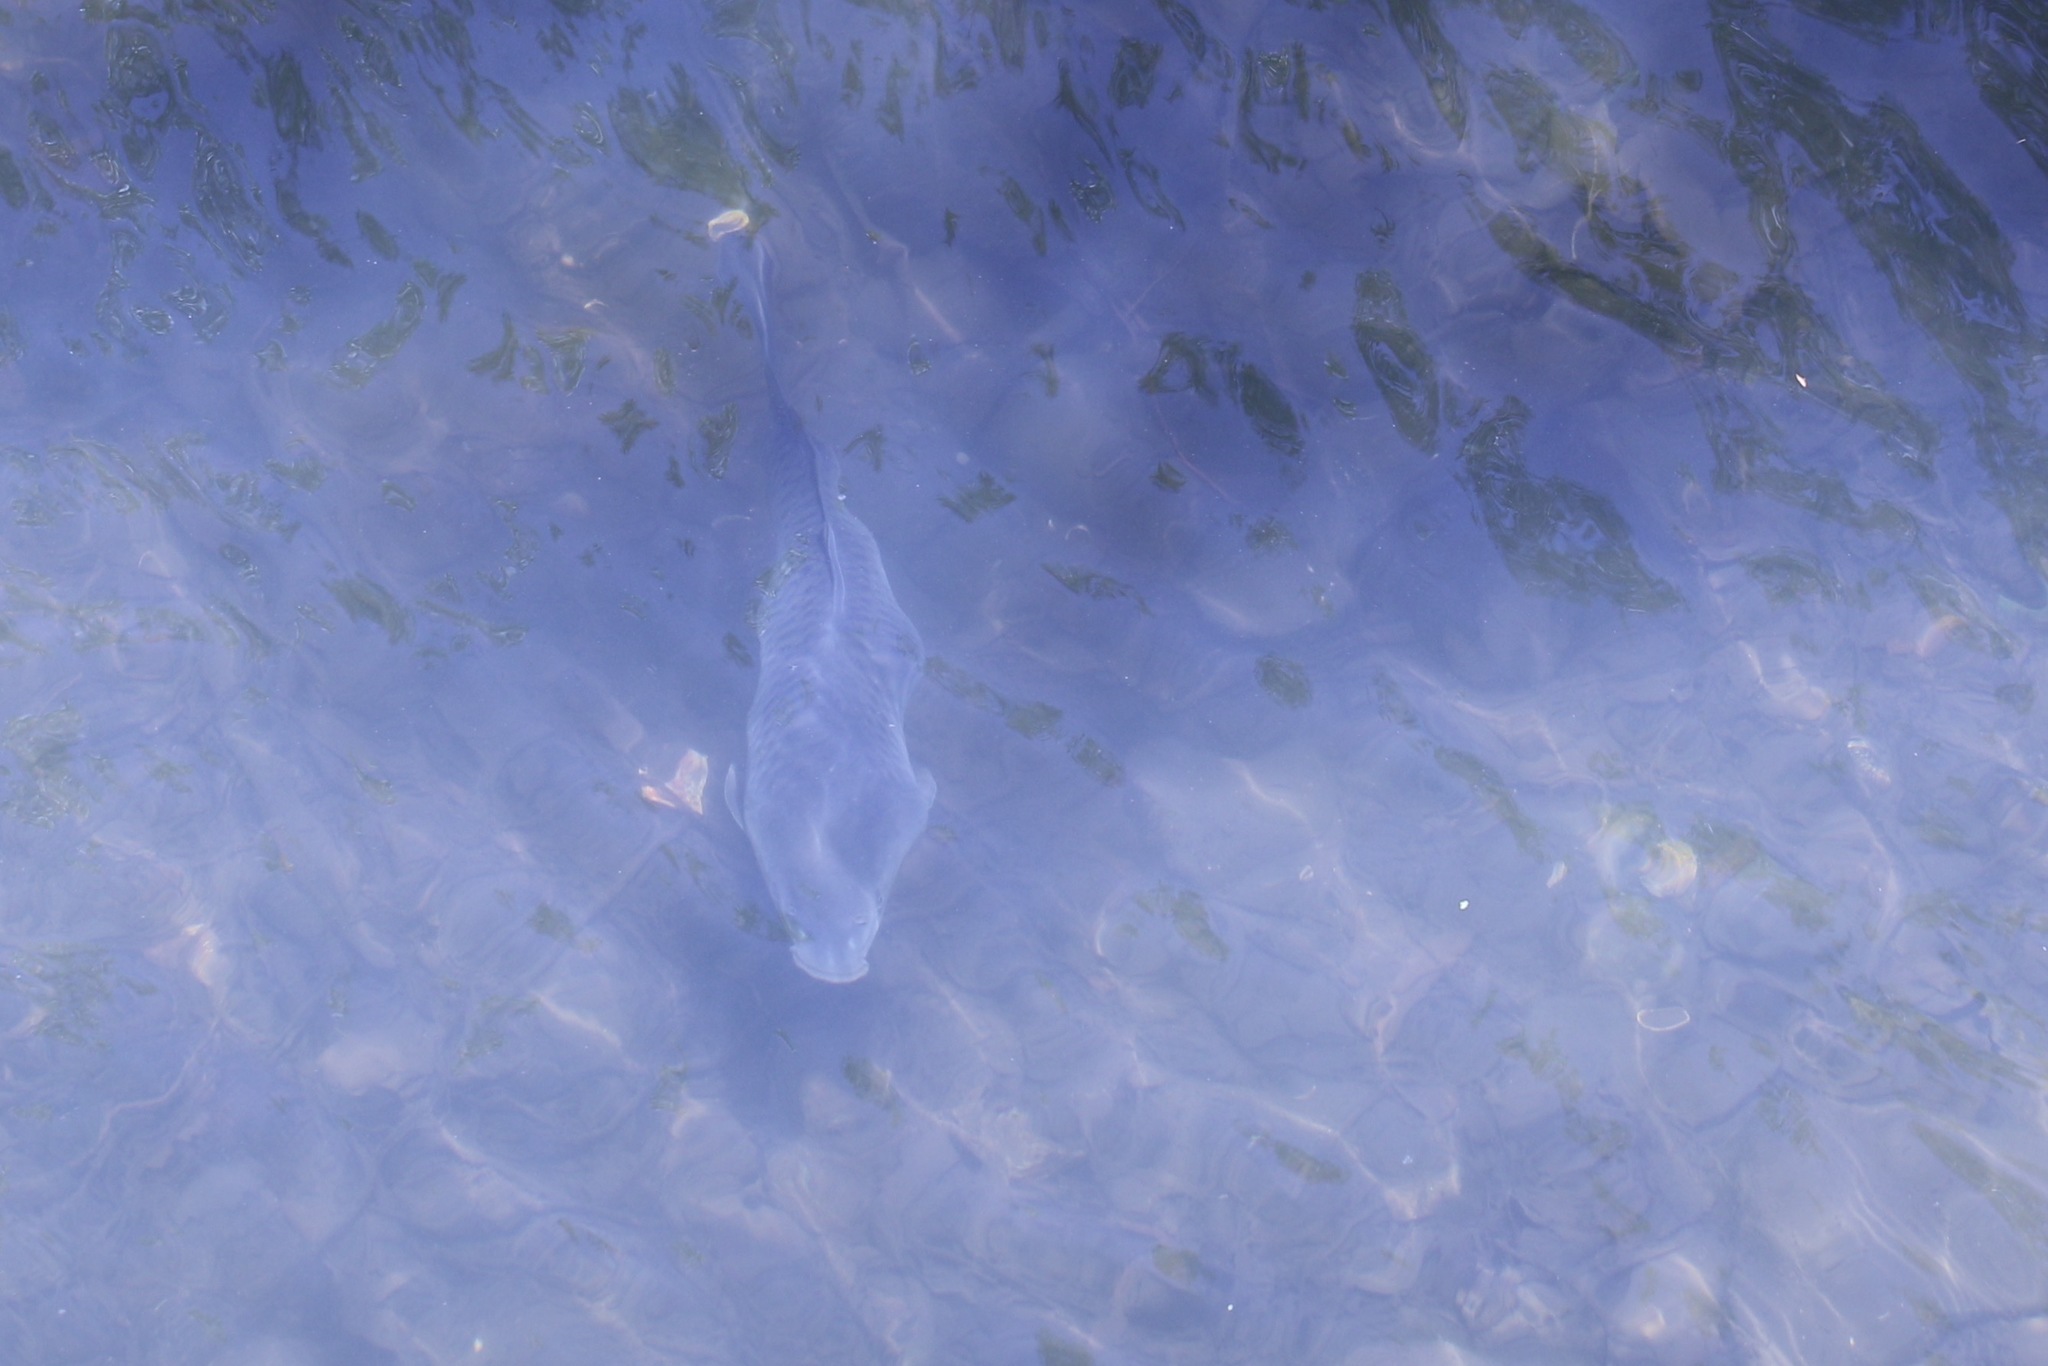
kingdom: Animalia
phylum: Chordata
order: Cypriniformes
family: Cyprinidae
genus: Cyprinus
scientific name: Cyprinus carpio
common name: Common carp
